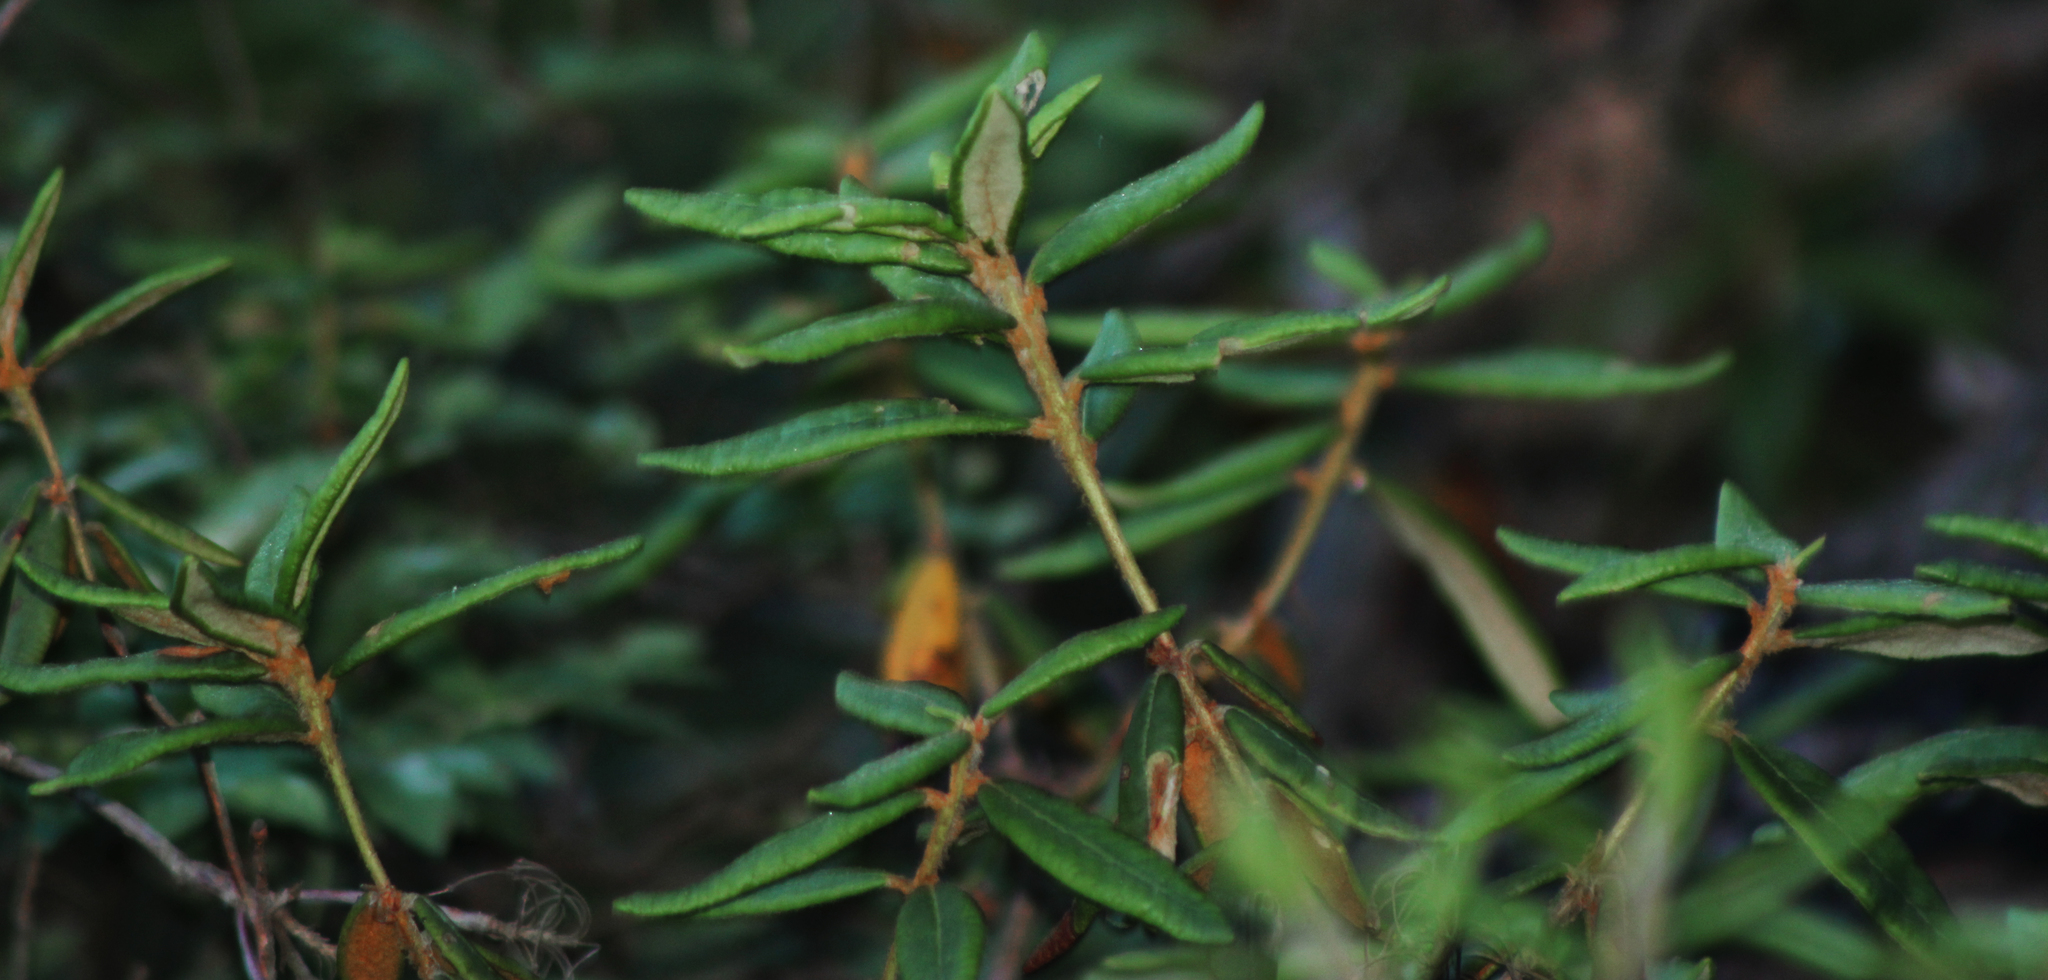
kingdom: Plantae
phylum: Tracheophyta
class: Magnoliopsida
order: Ericales
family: Ericaceae
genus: Rhododendron
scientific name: Rhododendron groenlandicum
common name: Bog labrador tea
